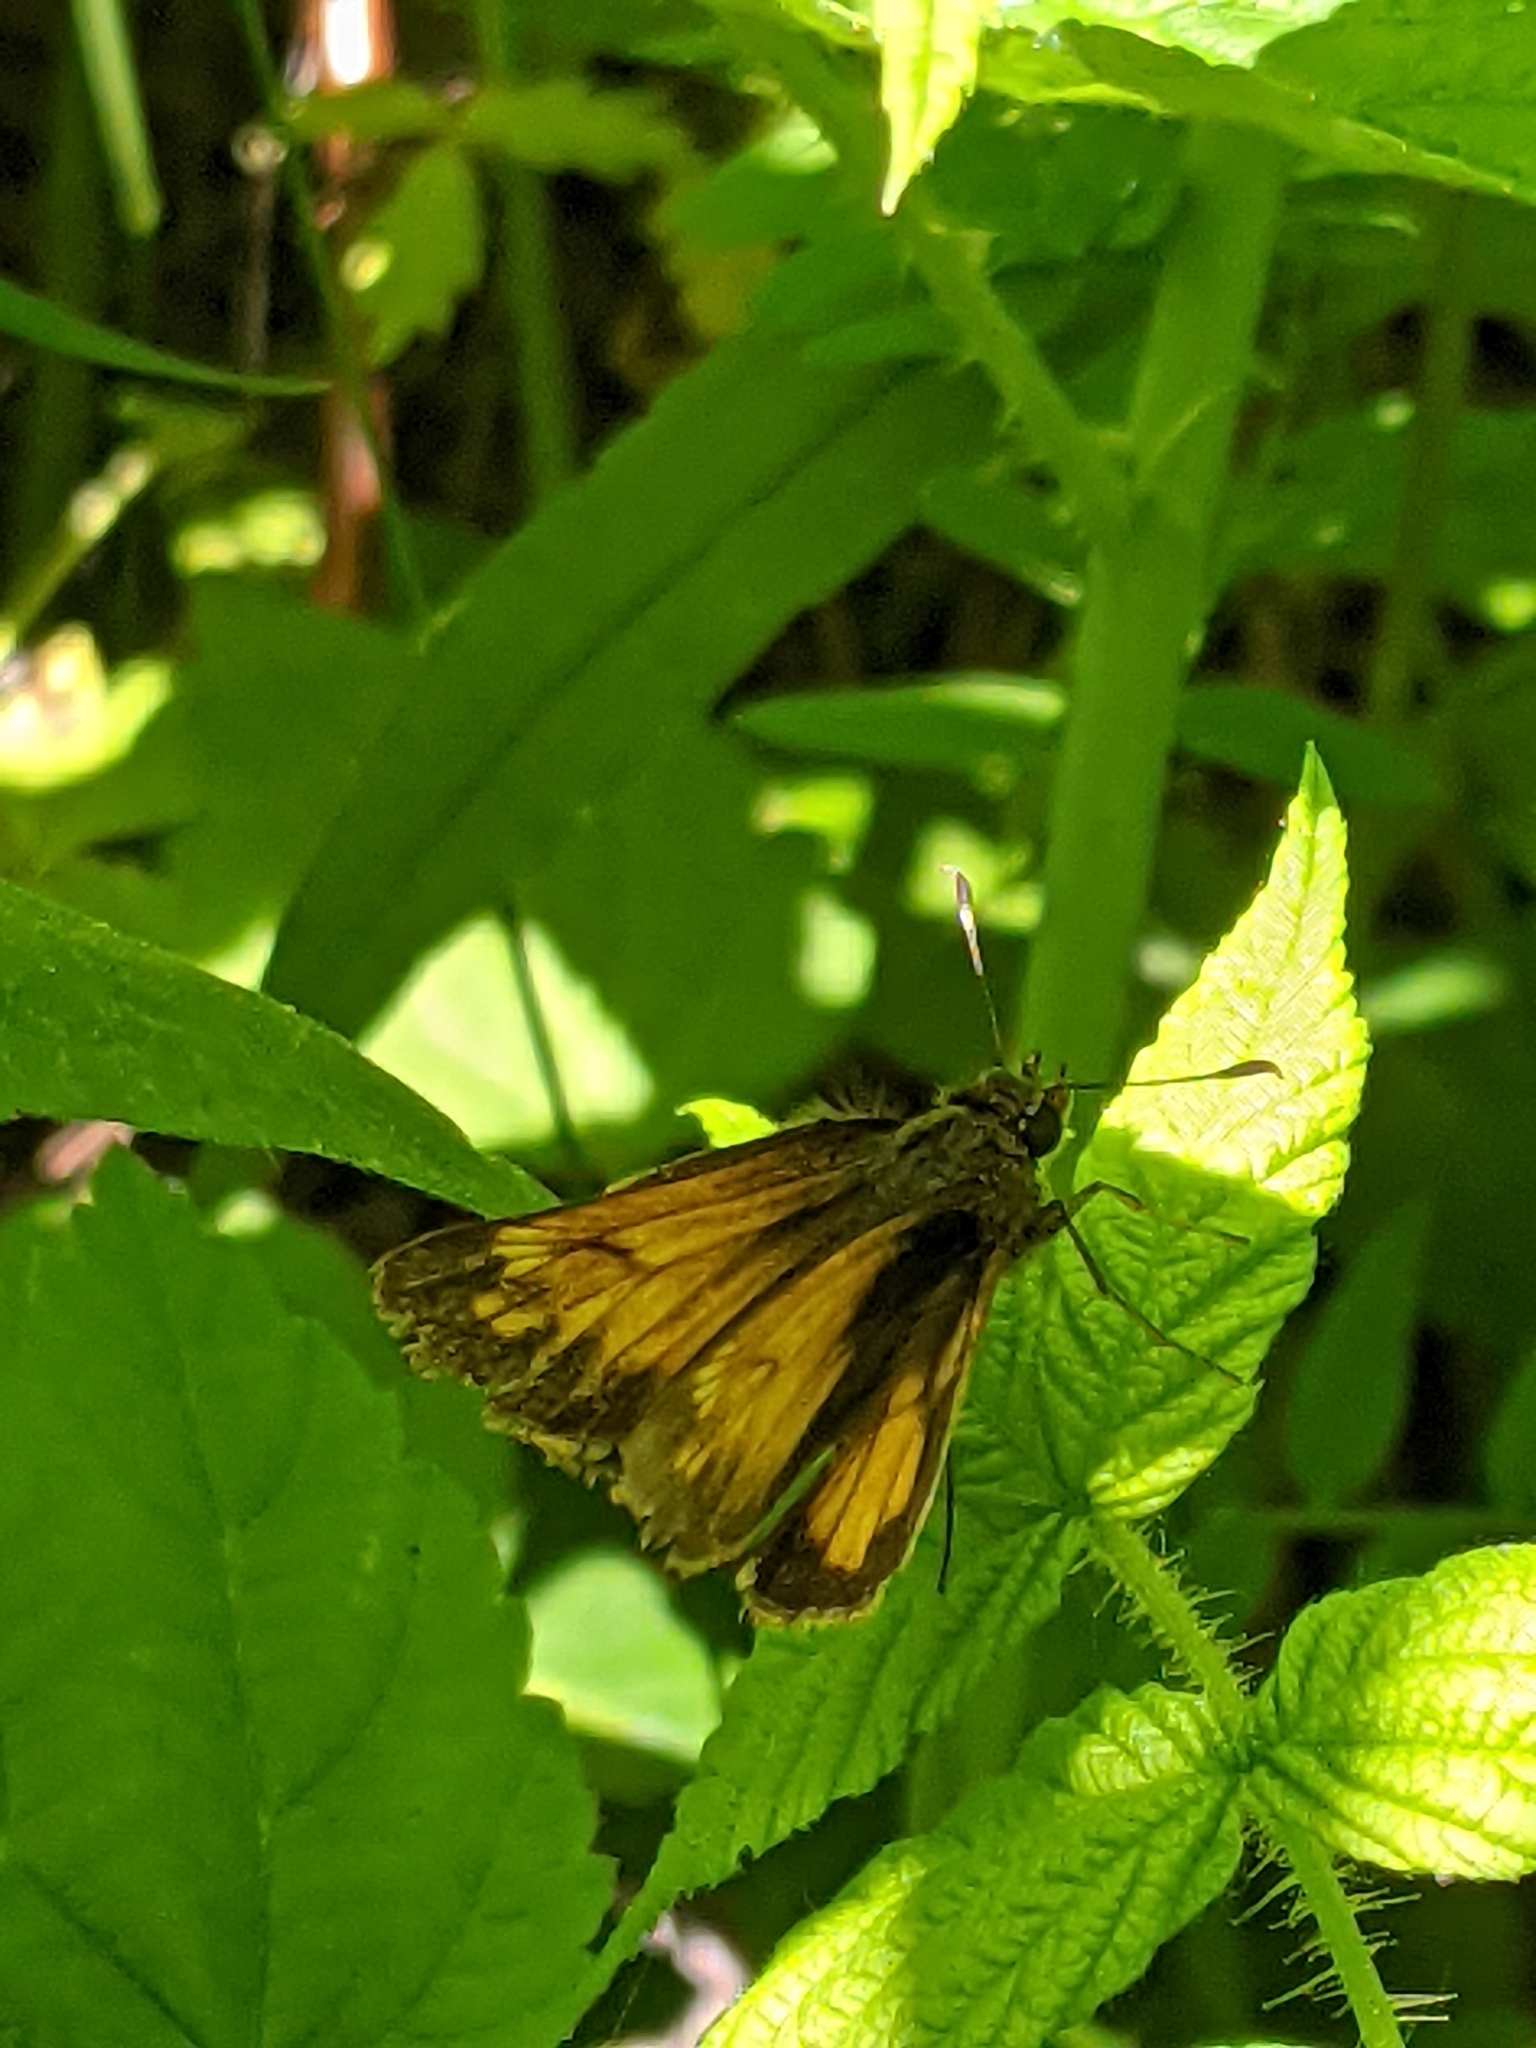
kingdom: Animalia
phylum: Arthropoda
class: Insecta
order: Lepidoptera
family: Hesperiidae
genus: Lon
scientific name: Lon hobomok
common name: Hobomok skipper
